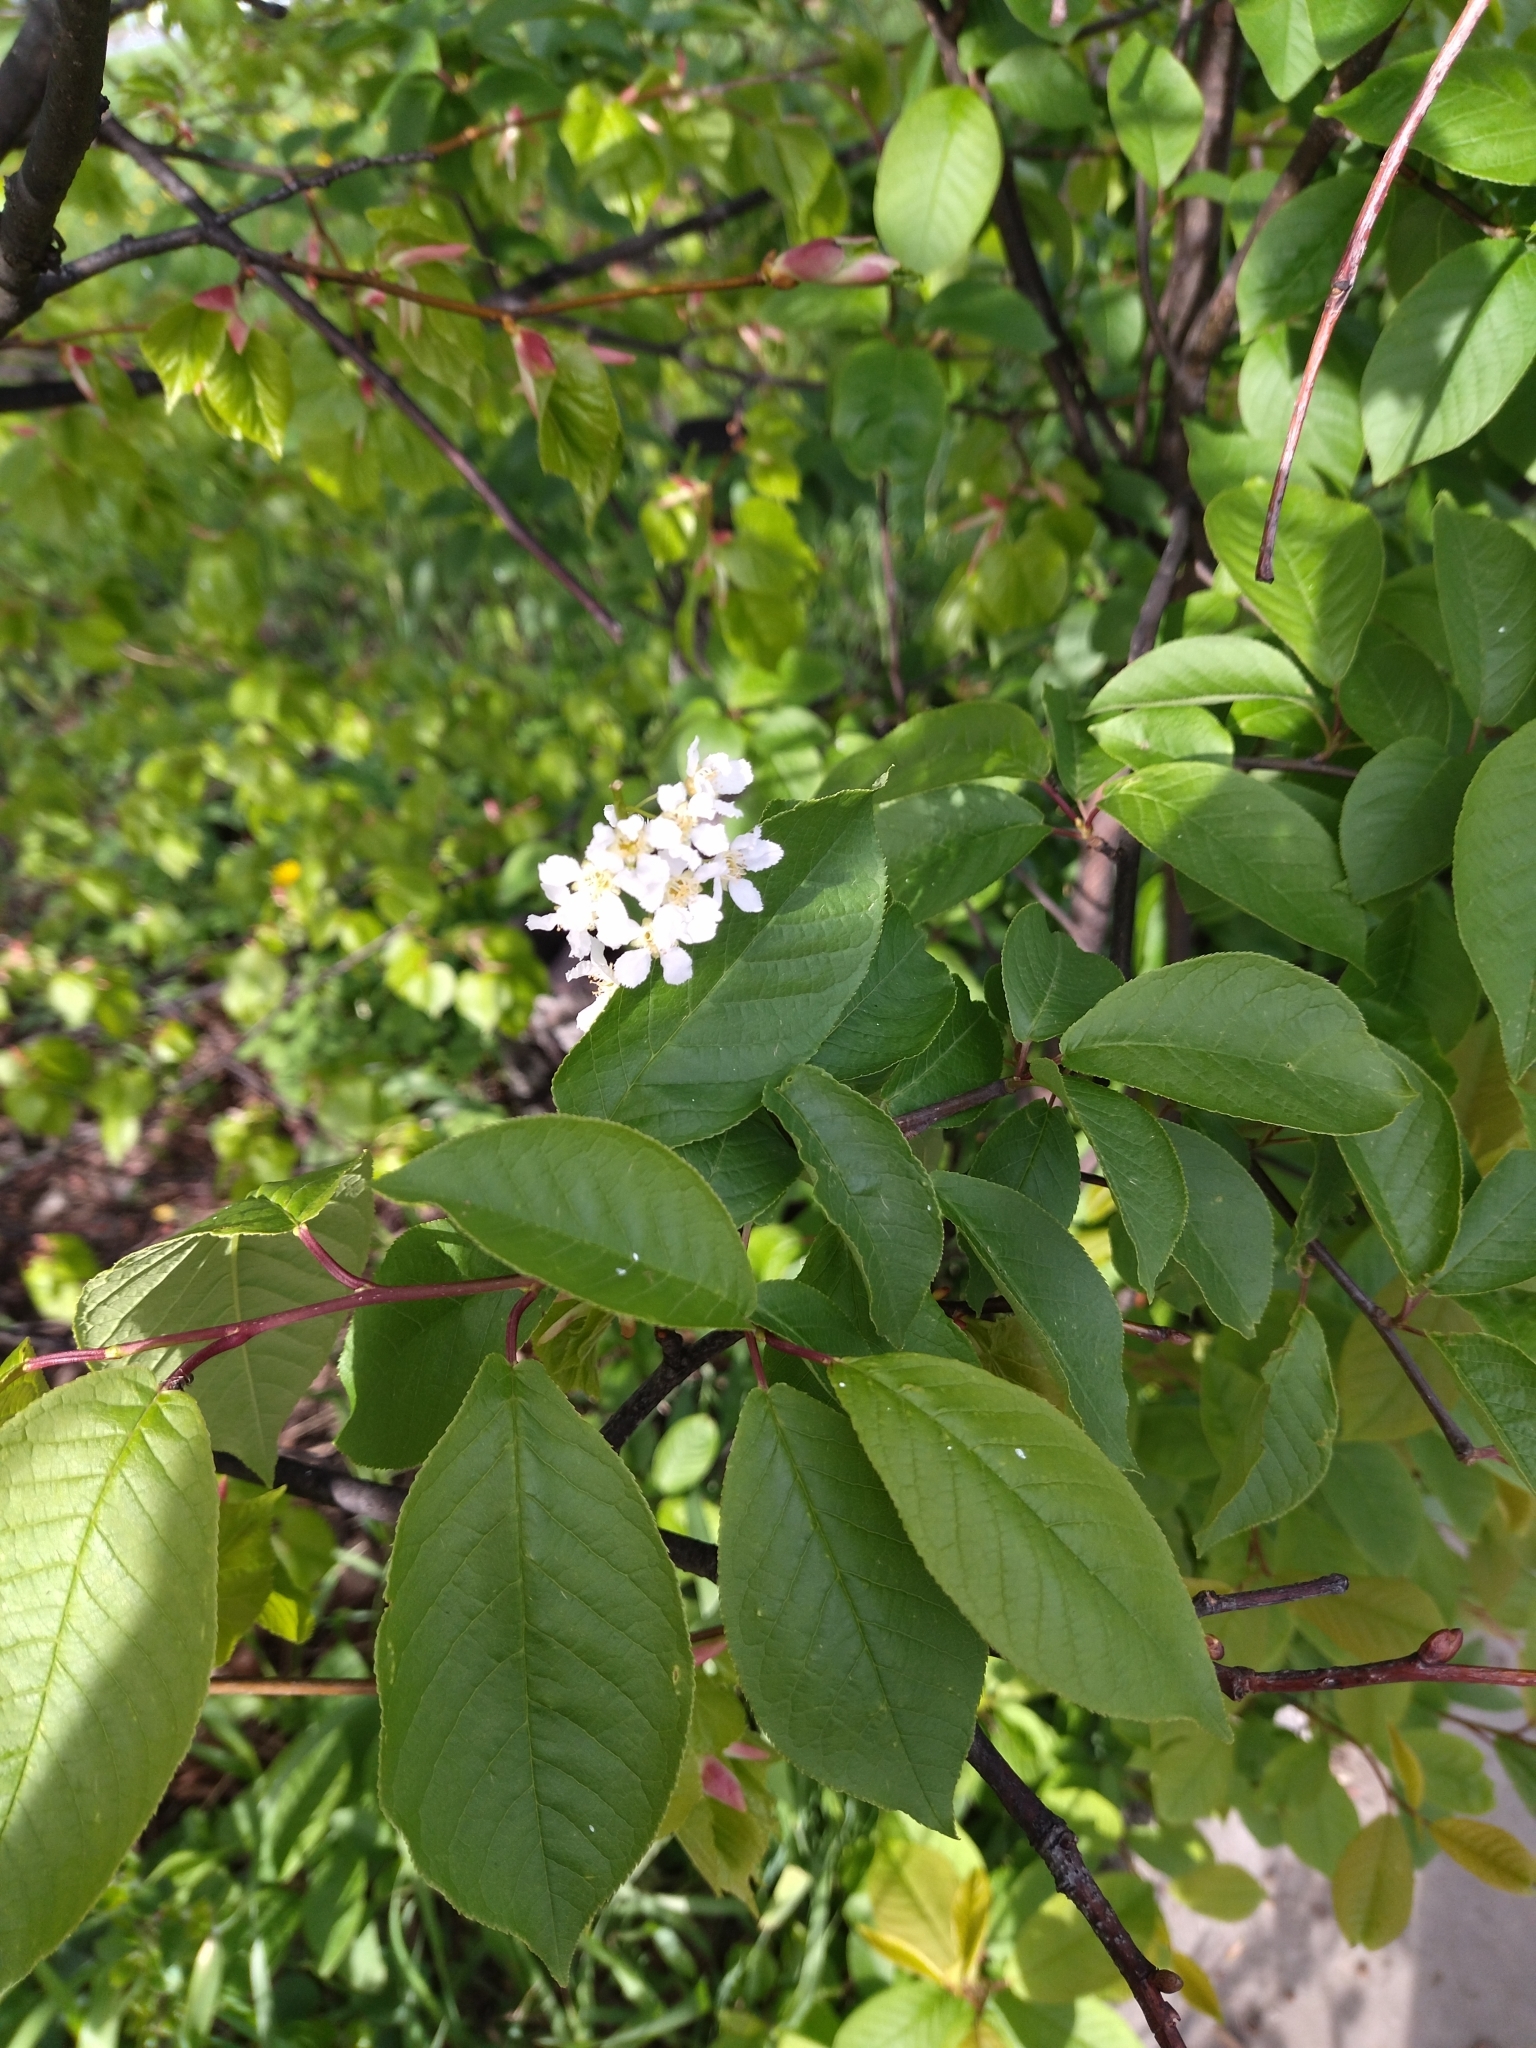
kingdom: Plantae
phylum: Tracheophyta
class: Magnoliopsida
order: Rosales
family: Rosaceae
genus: Prunus
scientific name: Prunus padus
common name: Bird cherry
